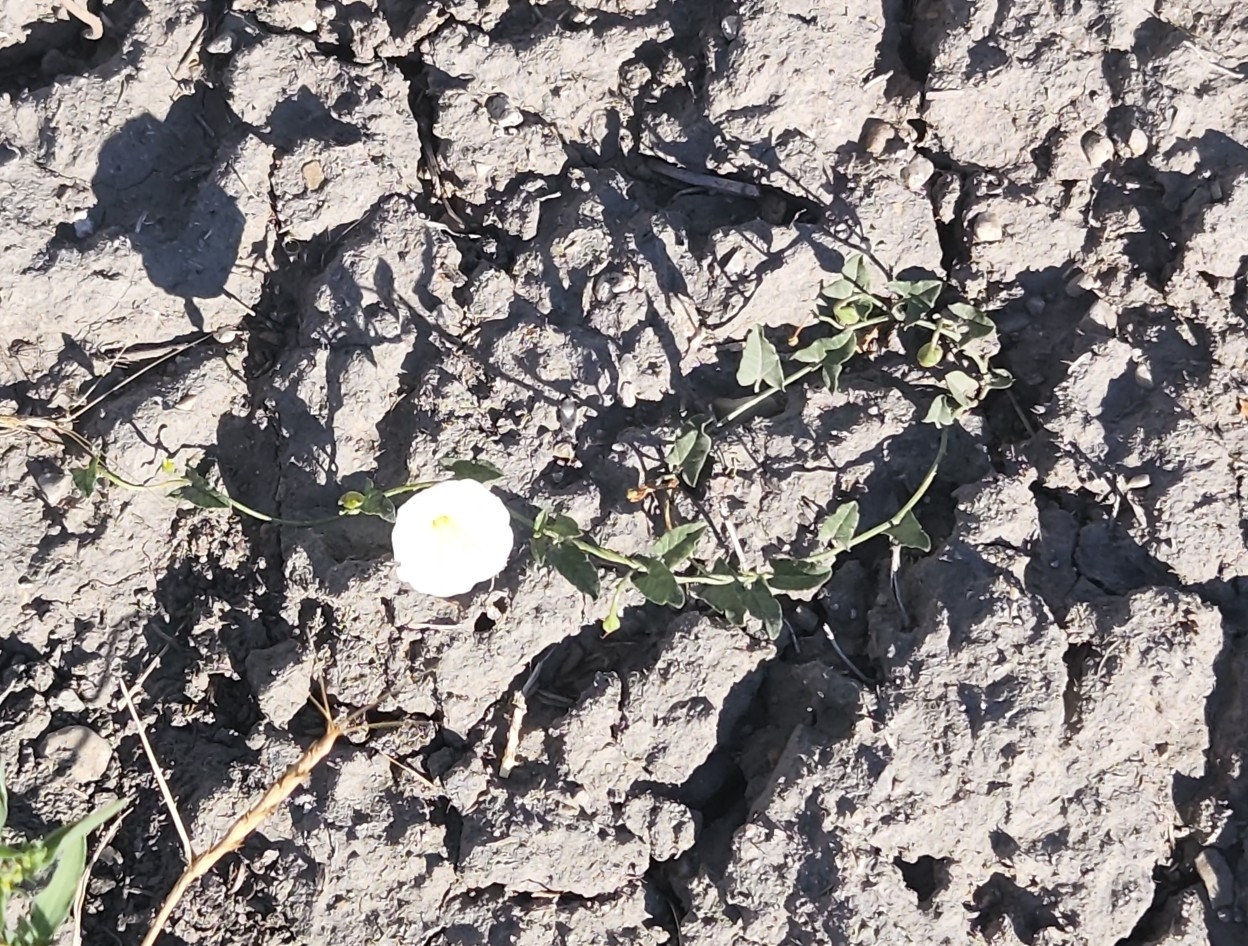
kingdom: Plantae
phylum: Tracheophyta
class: Magnoliopsida
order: Solanales
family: Convolvulaceae
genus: Convolvulus
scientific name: Convolvulus arvensis
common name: Field bindweed
